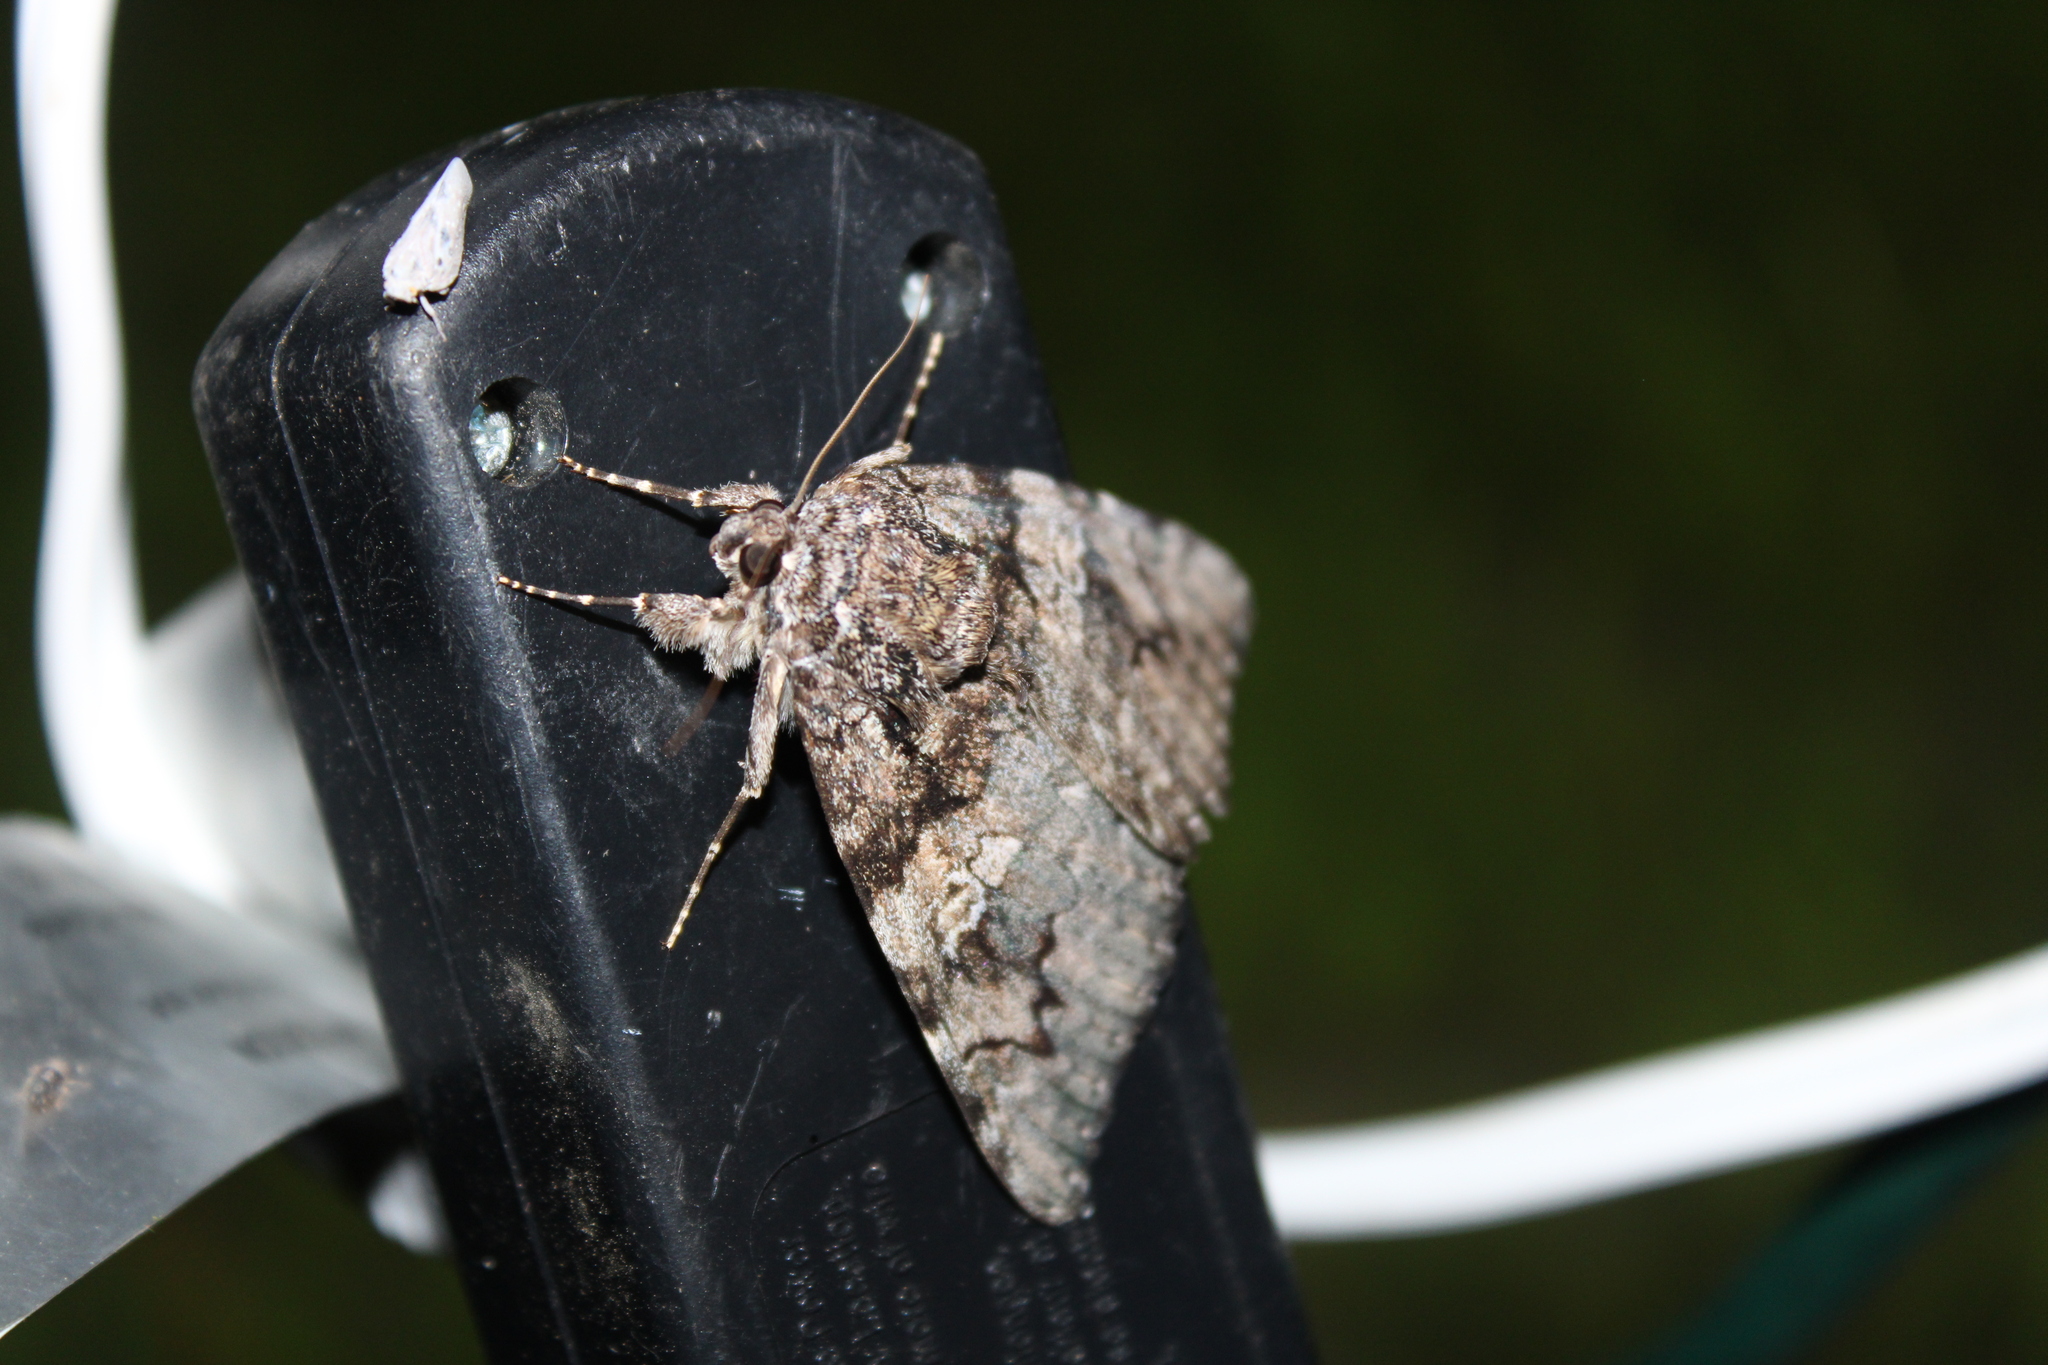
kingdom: Animalia
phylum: Arthropoda
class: Insecta
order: Lepidoptera
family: Erebidae
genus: Catocala
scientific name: Catocala ilia
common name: Ilia underwing
